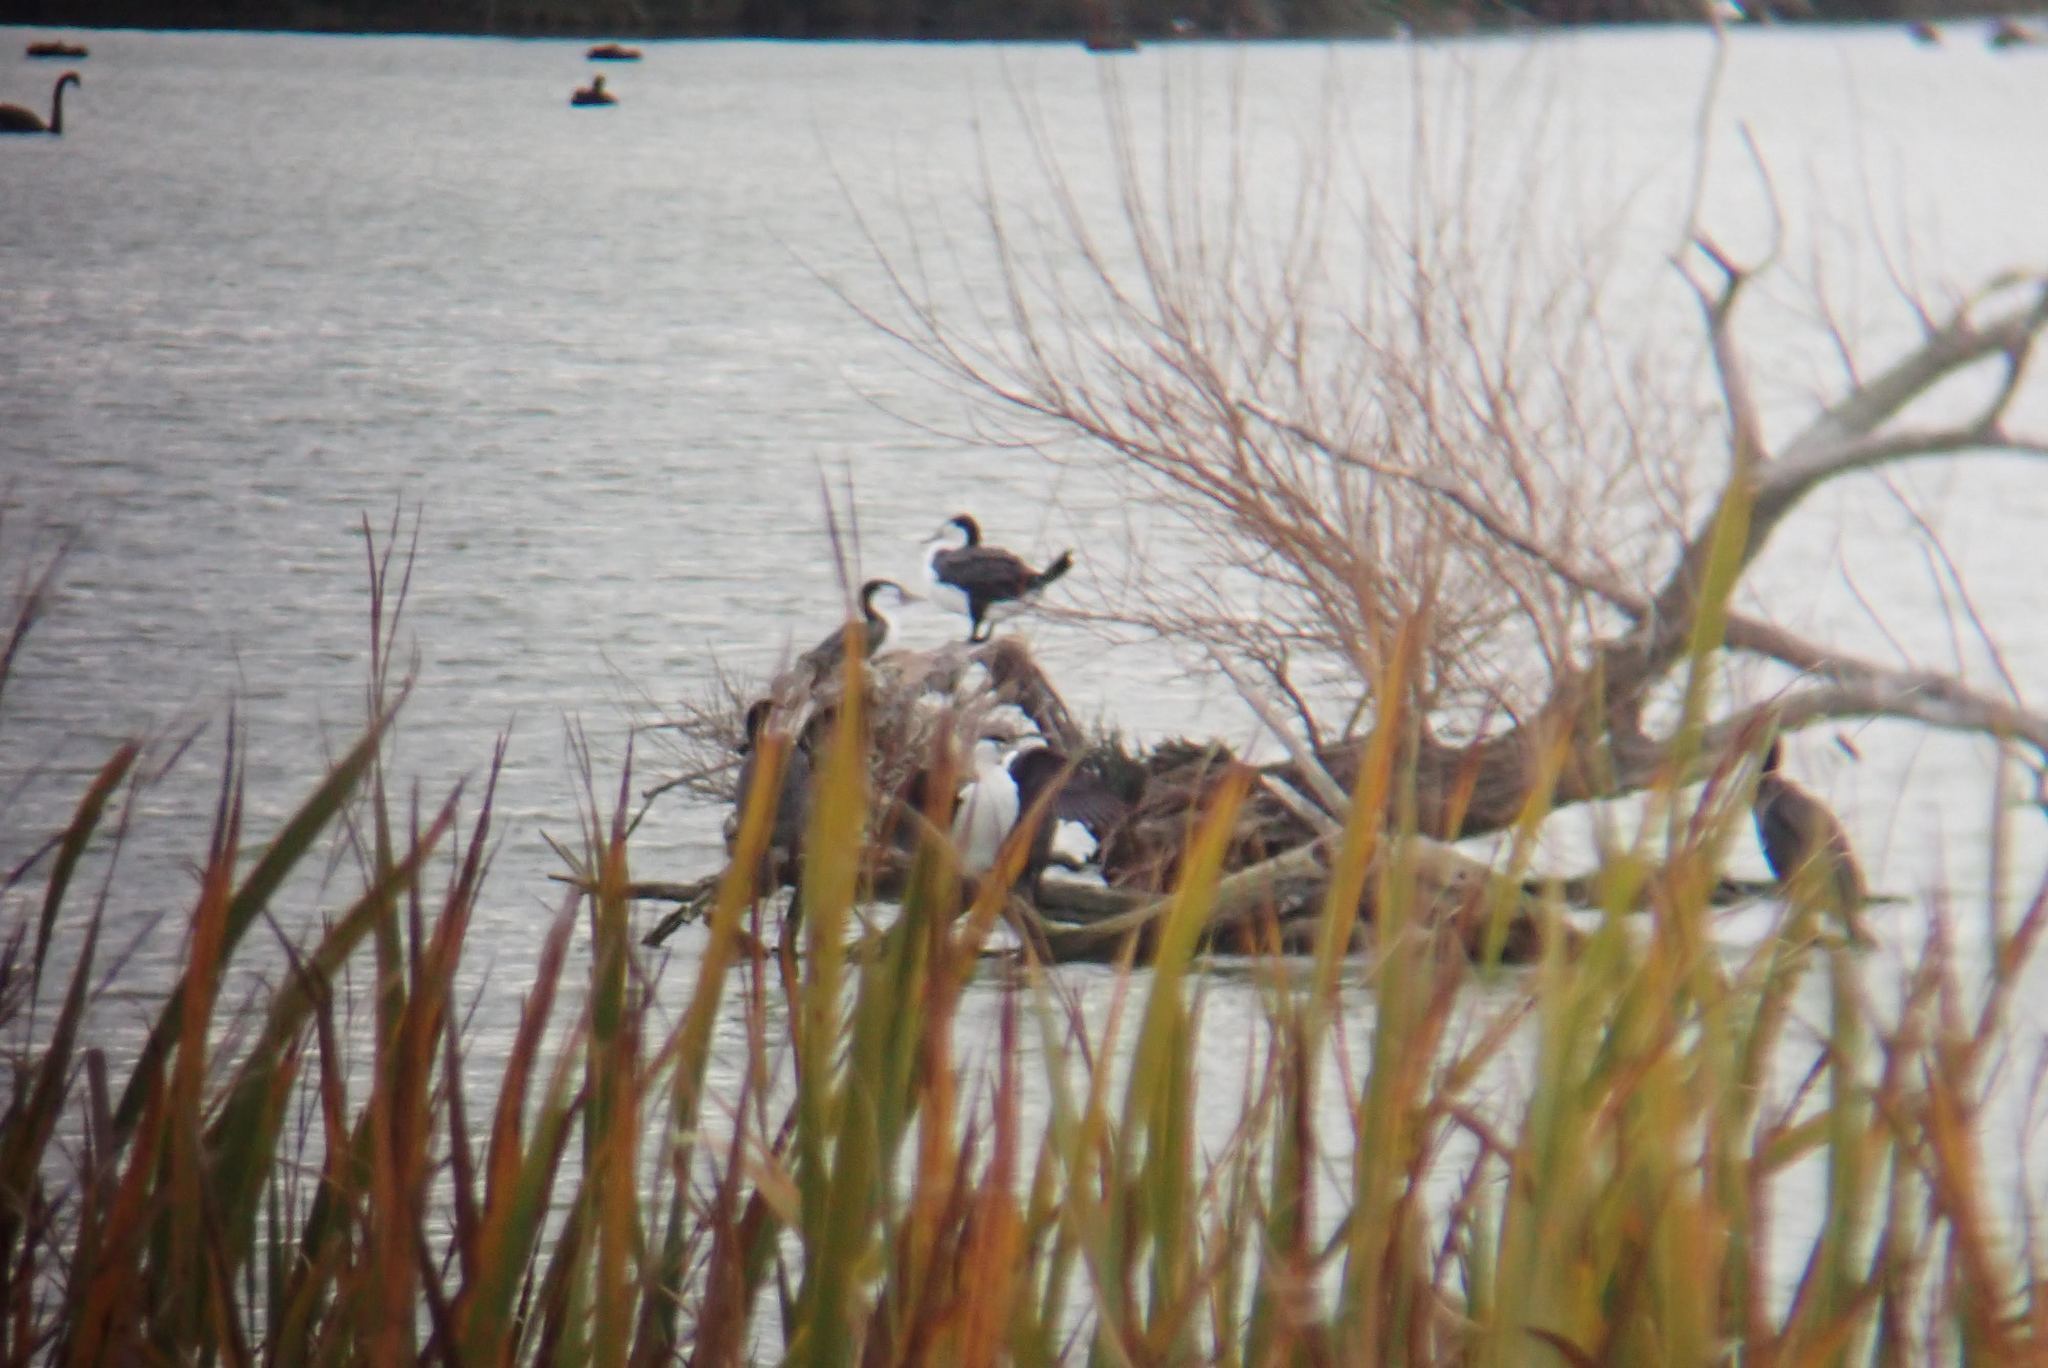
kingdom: Animalia
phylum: Chordata
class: Aves
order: Suliformes
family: Phalacrocoracidae
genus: Phalacrocorax
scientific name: Phalacrocorax varius
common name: Pied cormorant
